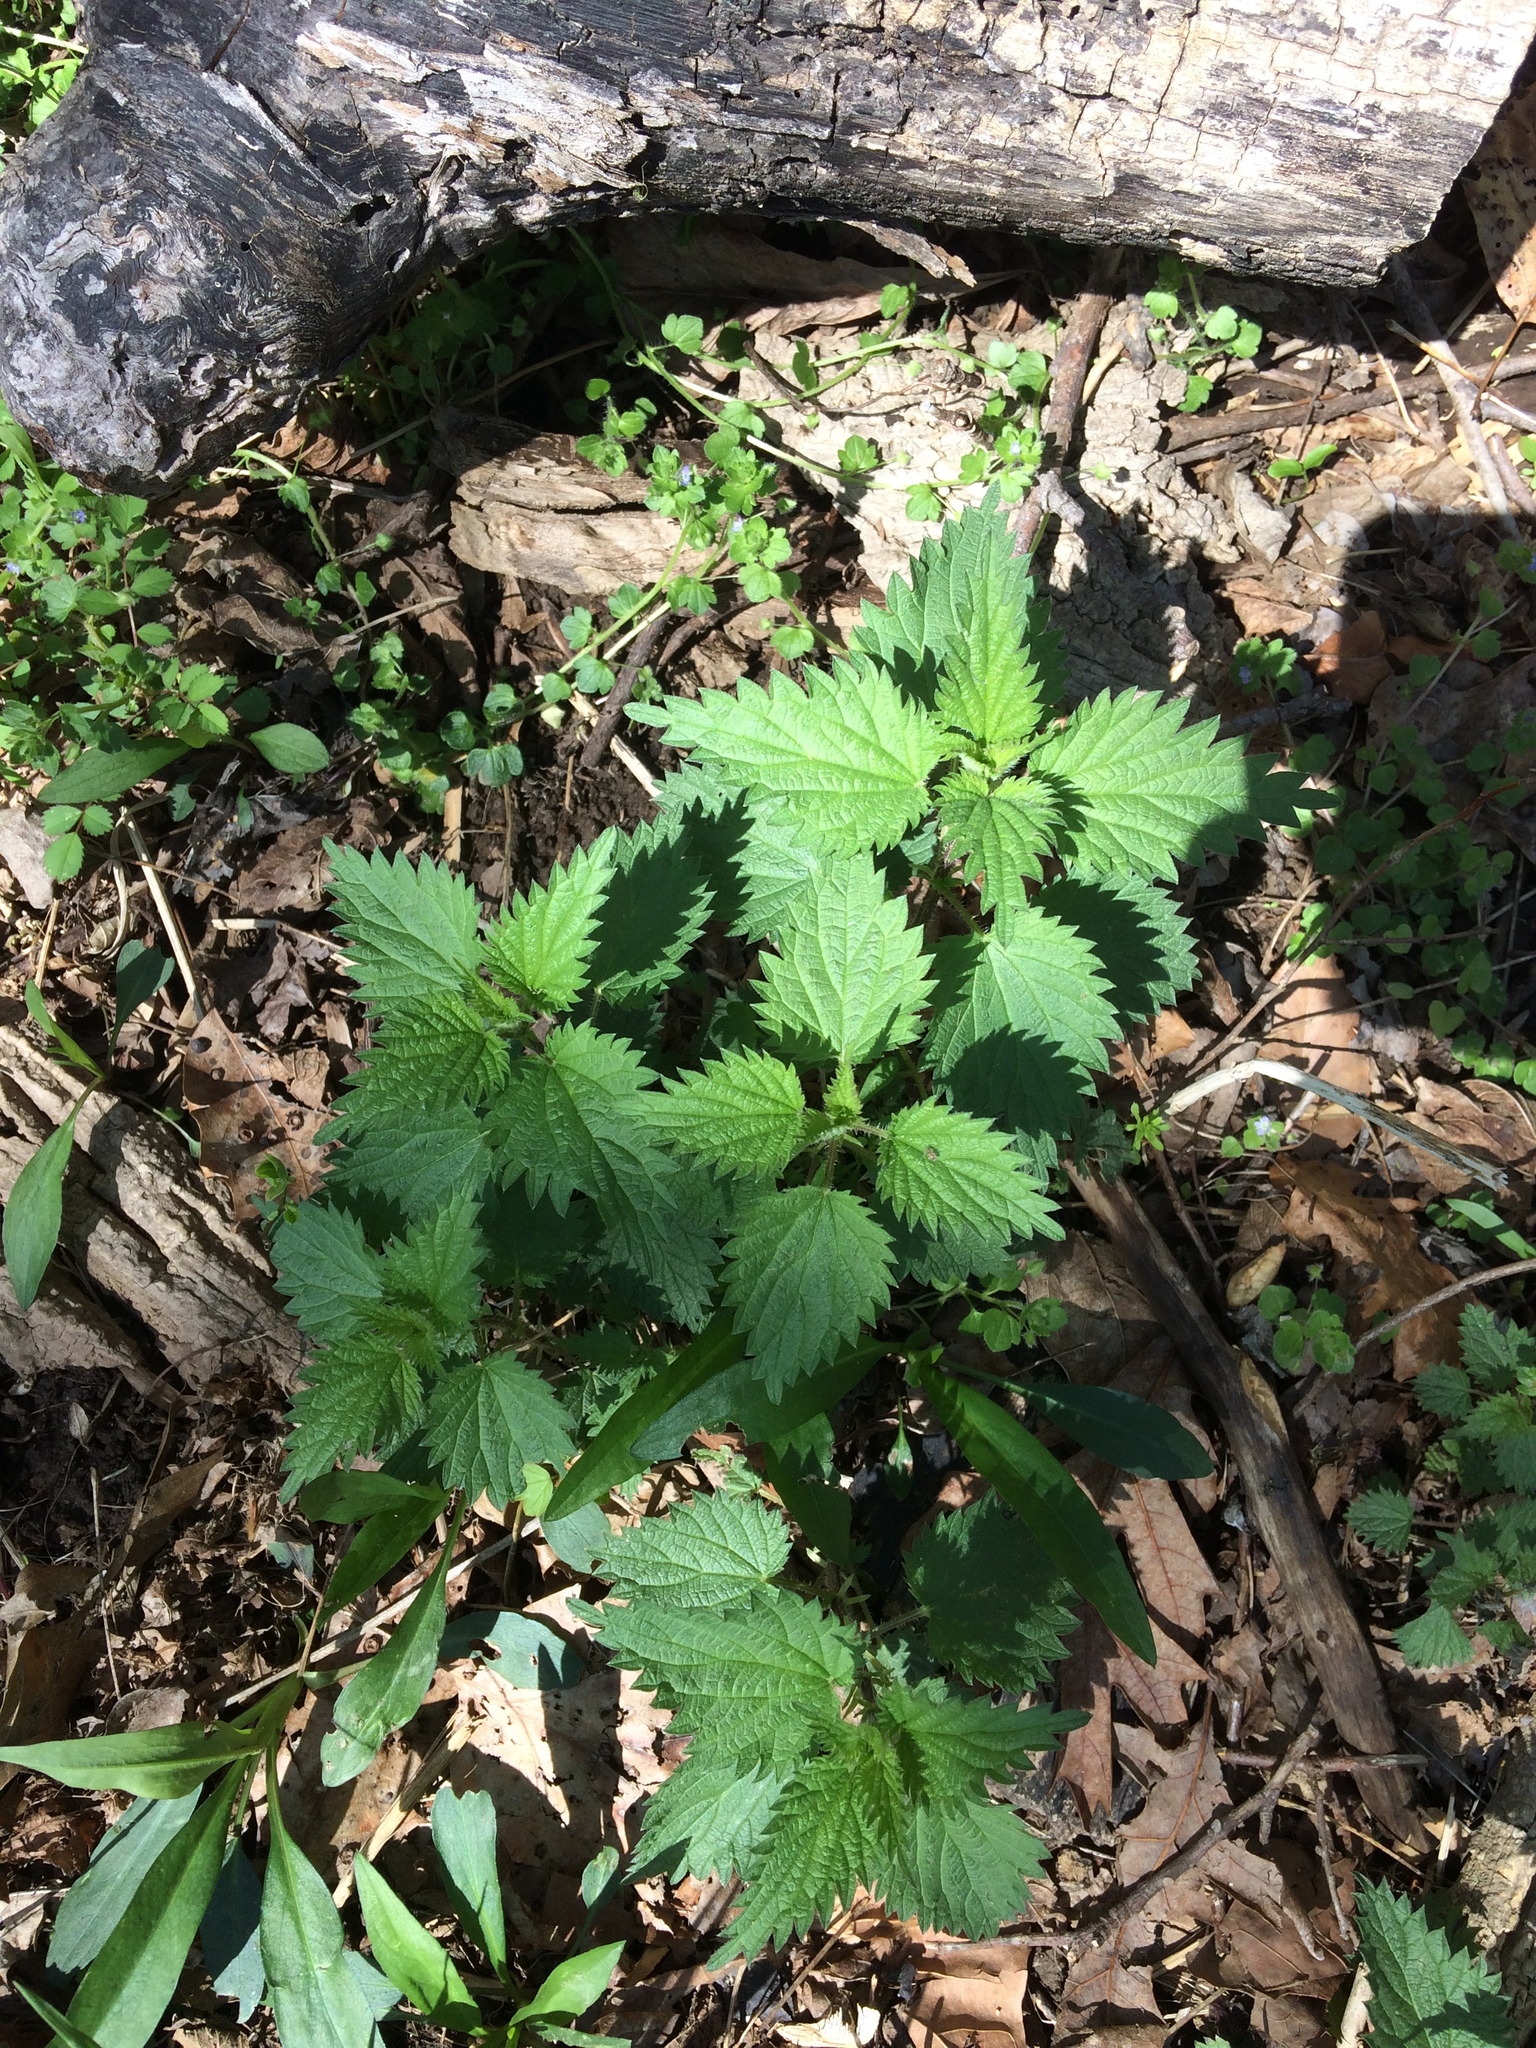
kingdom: Plantae
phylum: Tracheophyta
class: Magnoliopsida
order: Rosales
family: Urticaceae
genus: Urtica
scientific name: Urtica dioica
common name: Common nettle
